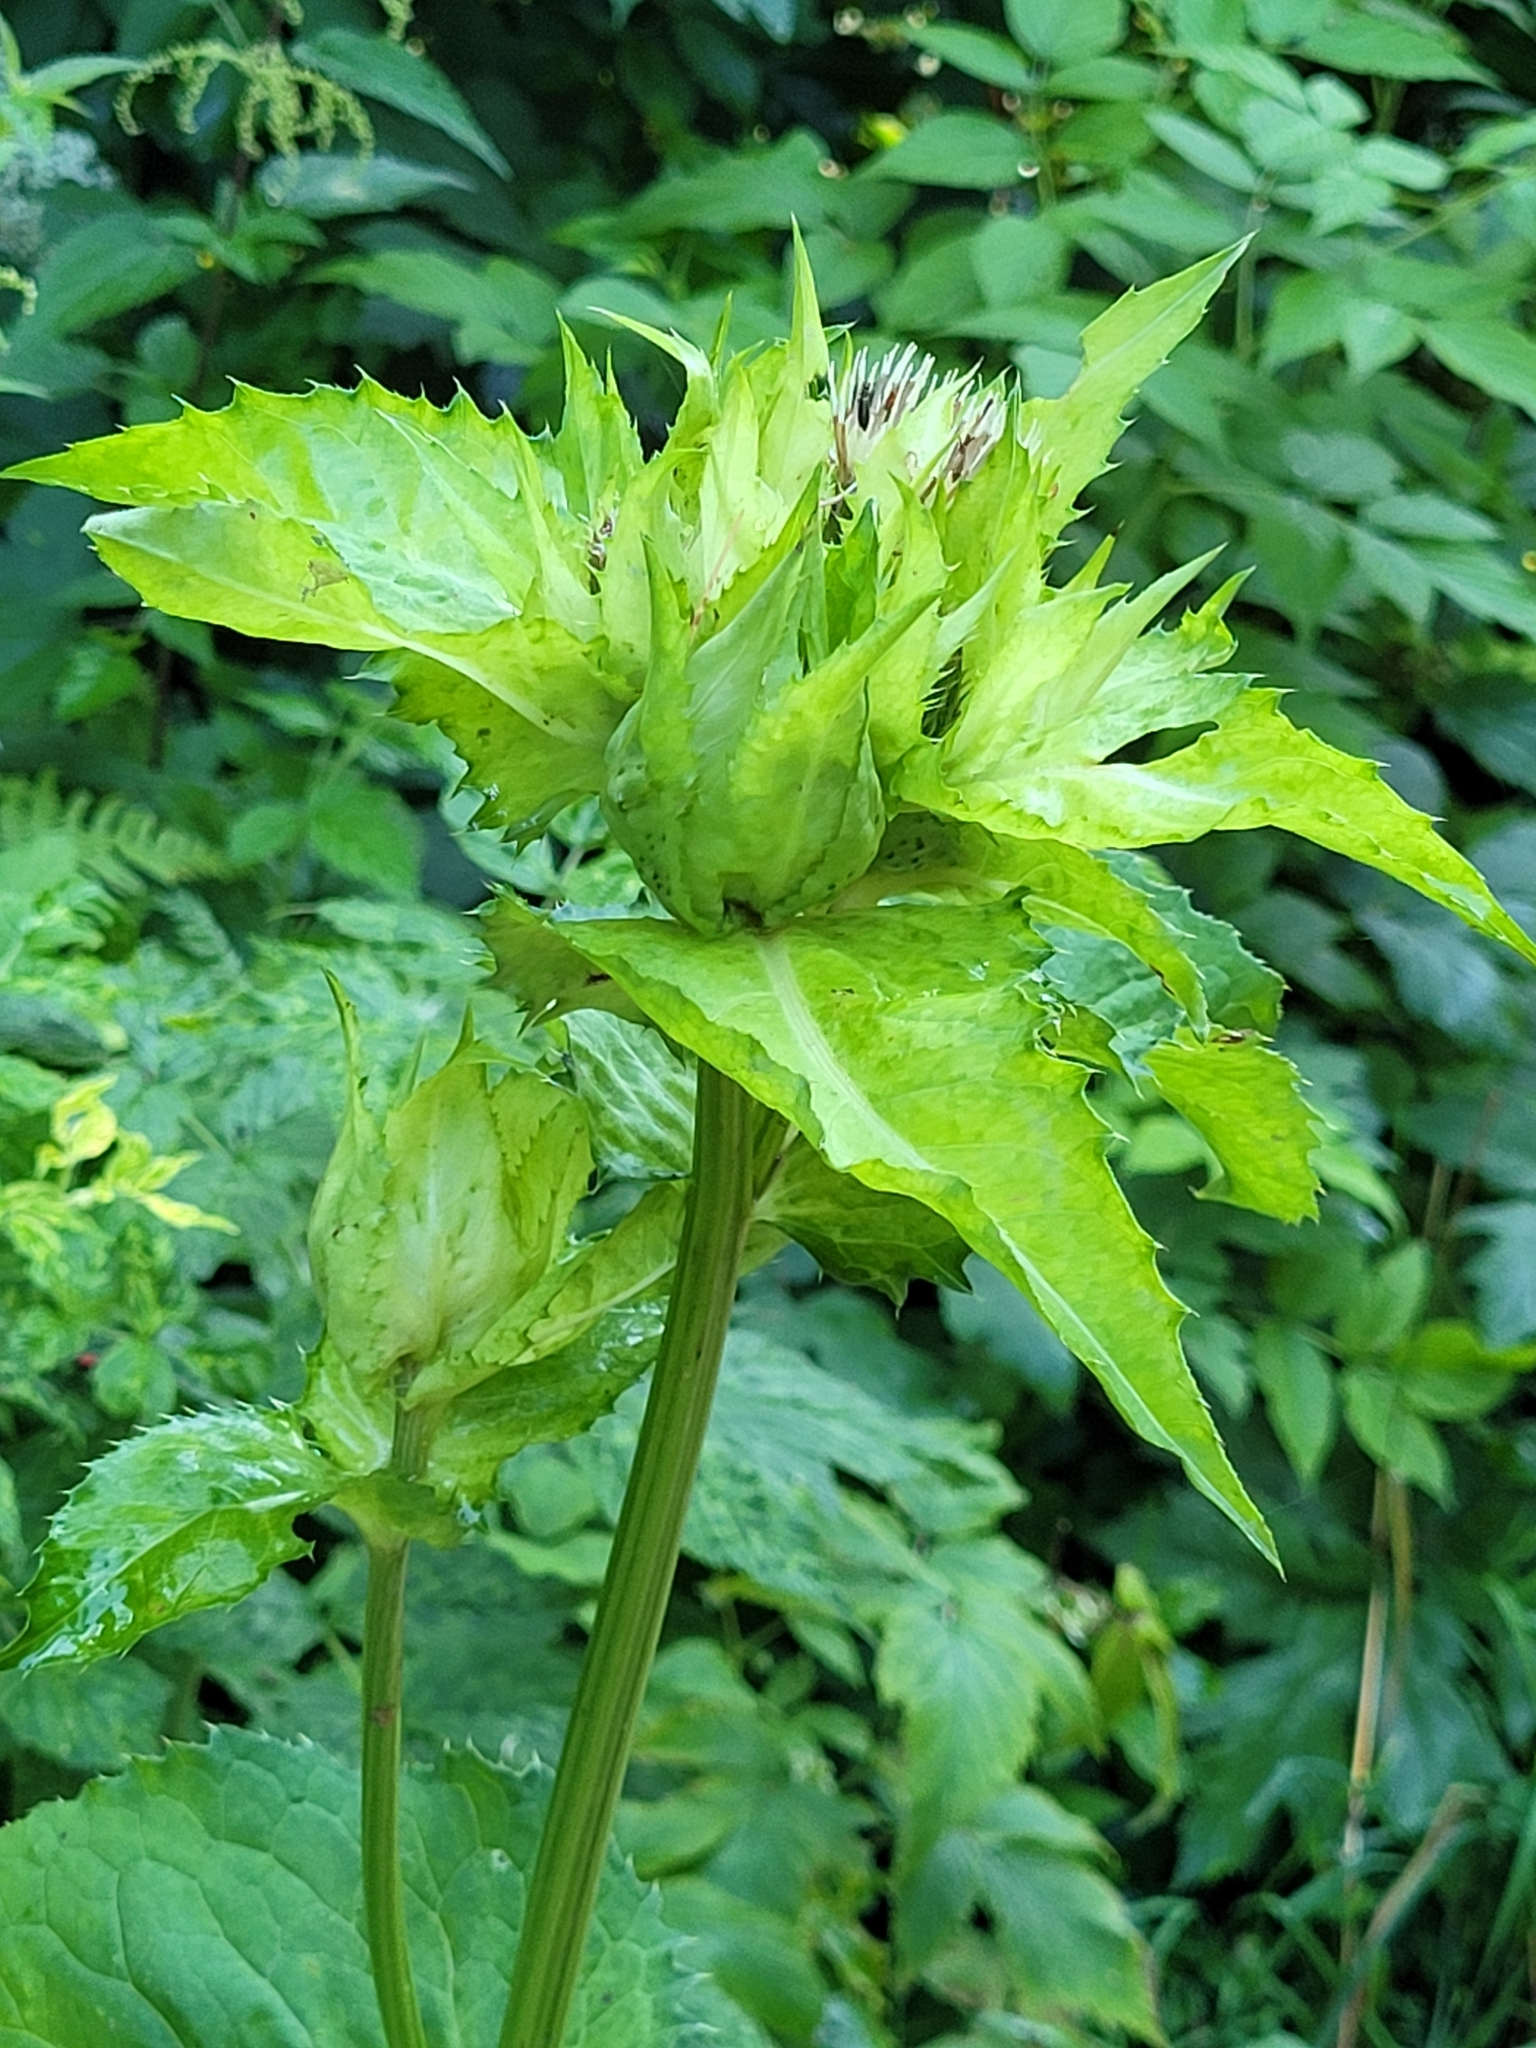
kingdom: Plantae
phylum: Tracheophyta
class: Magnoliopsida
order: Asterales
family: Asteraceae
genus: Cirsium
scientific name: Cirsium oleraceum
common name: Cabbage thistle
